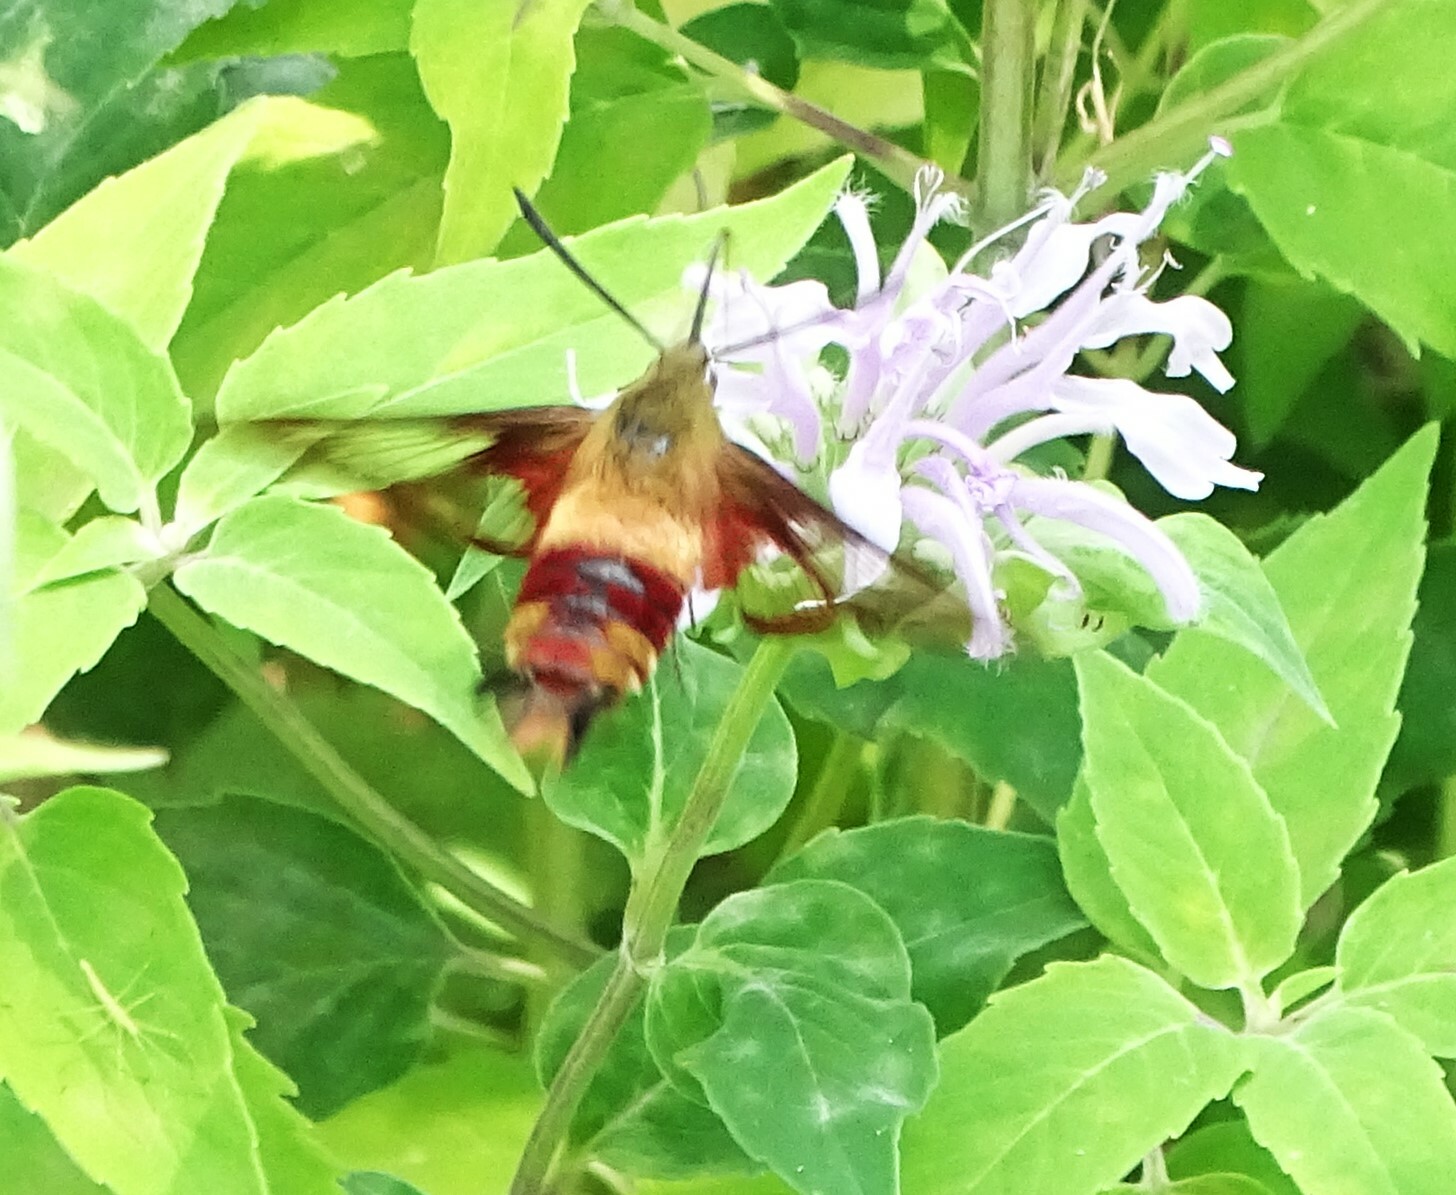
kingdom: Animalia
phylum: Arthropoda
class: Insecta
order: Lepidoptera
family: Sphingidae
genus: Hemaris
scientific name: Hemaris thysbe
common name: Common clear-wing
